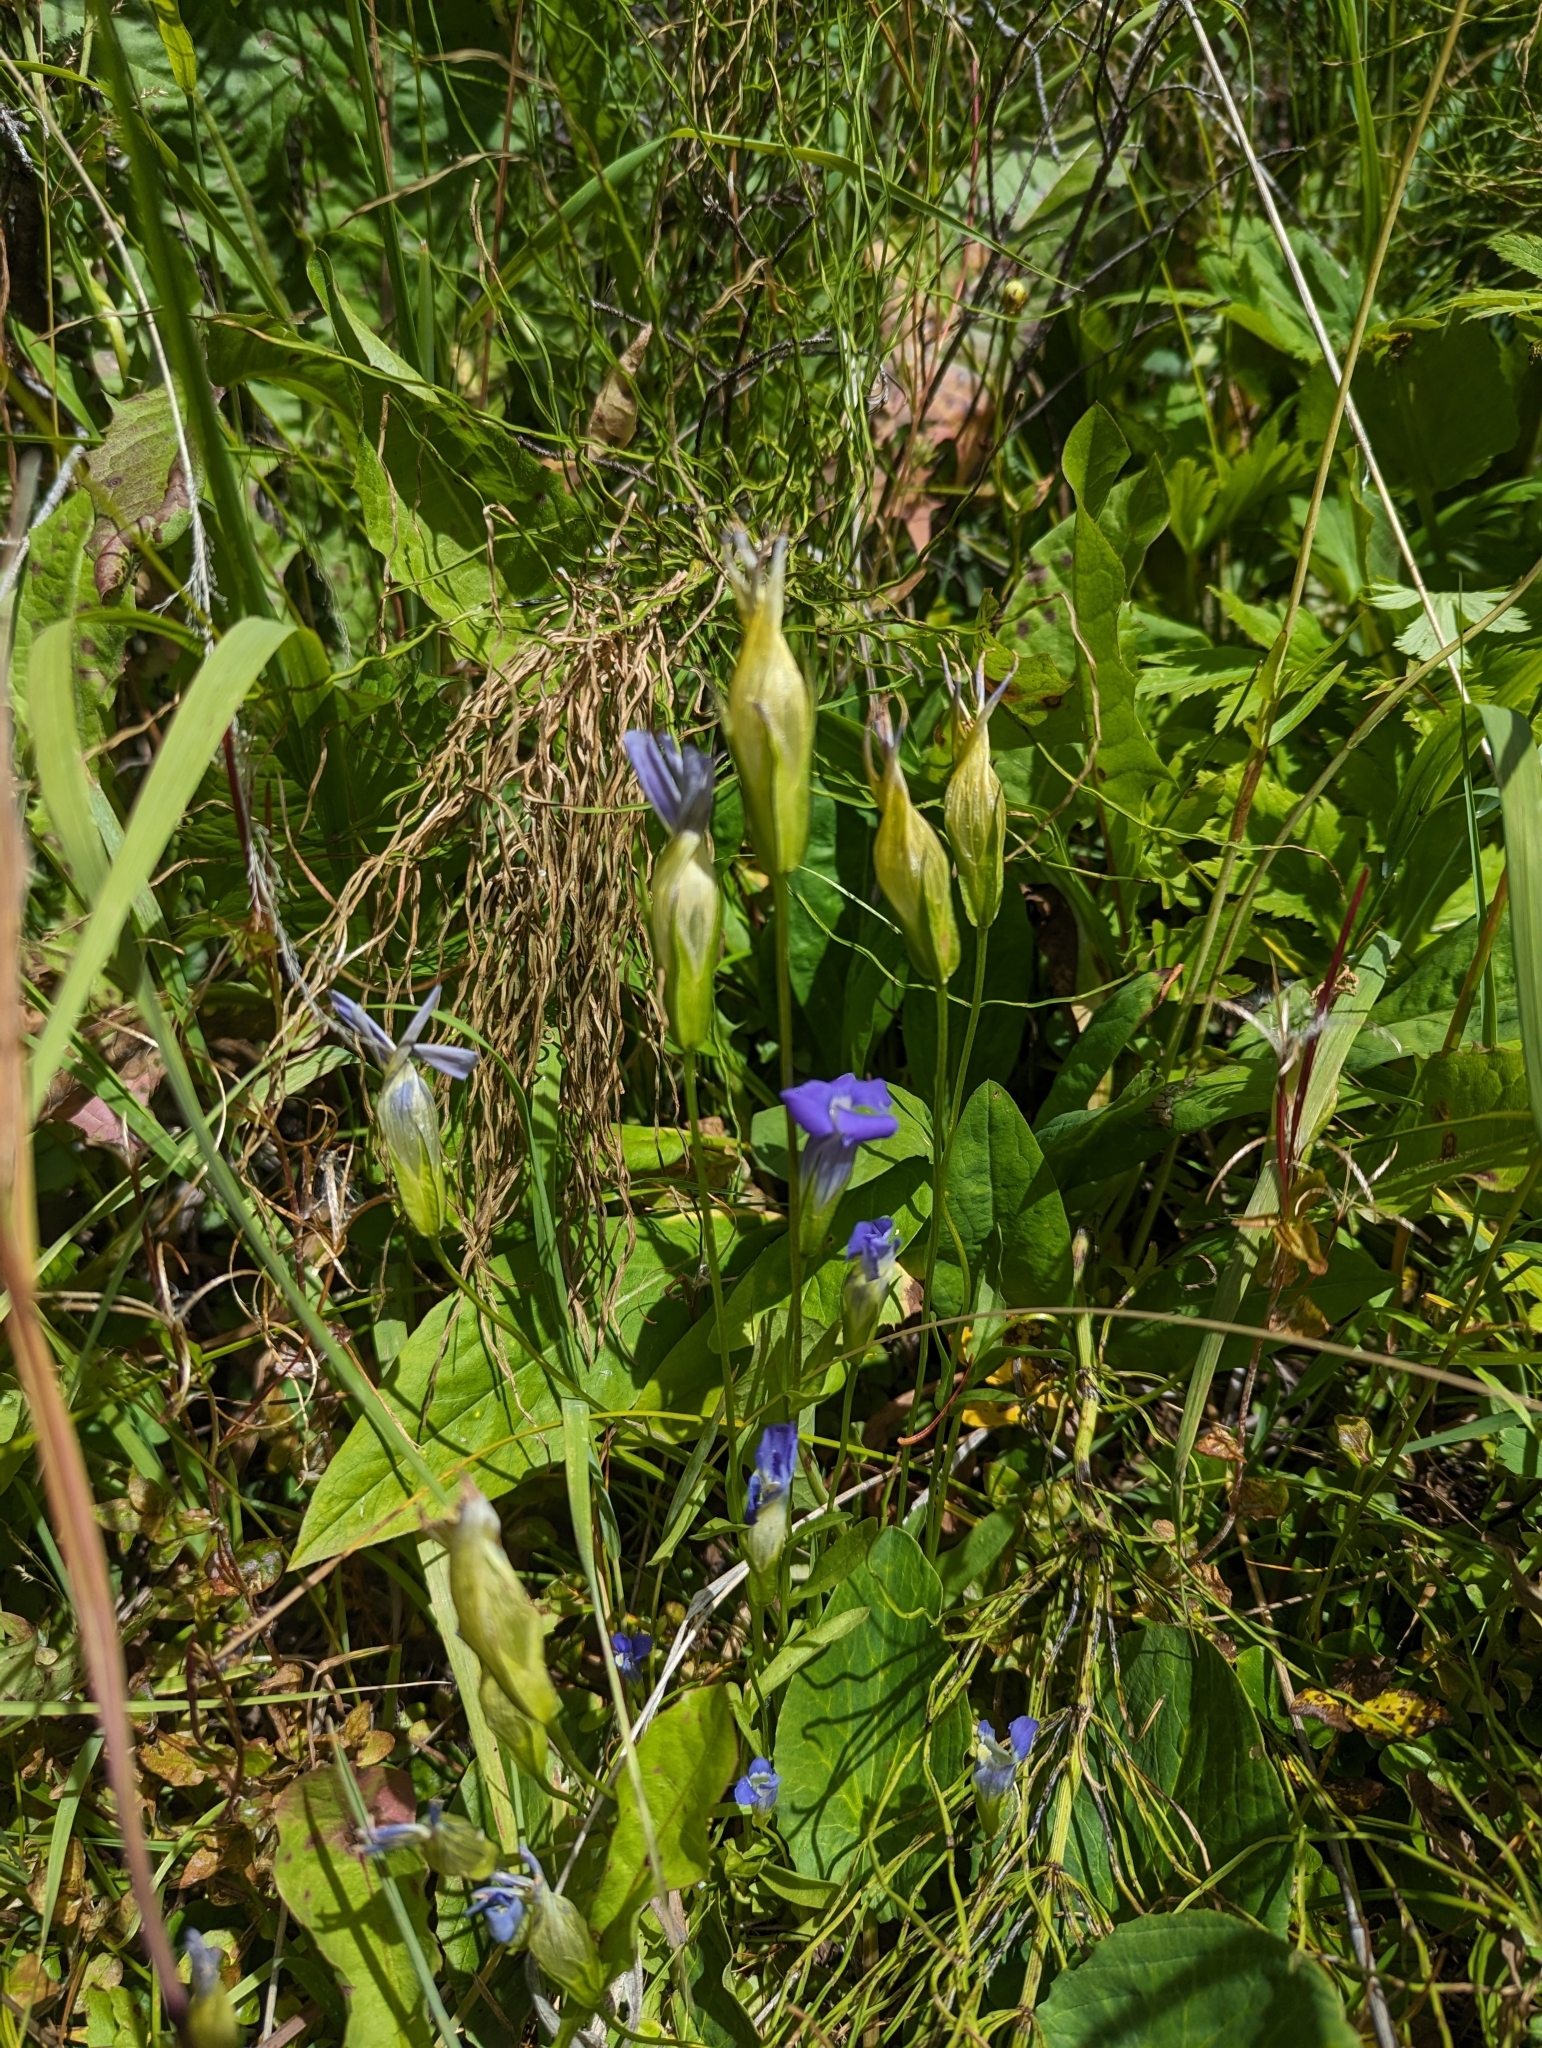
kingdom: Plantae
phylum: Tracheophyta
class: Magnoliopsida
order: Gentianales
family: Gentianaceae
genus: Gentianopsis
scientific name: Gentianopsis thermalis
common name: Rocky mountain fringed-gentian
